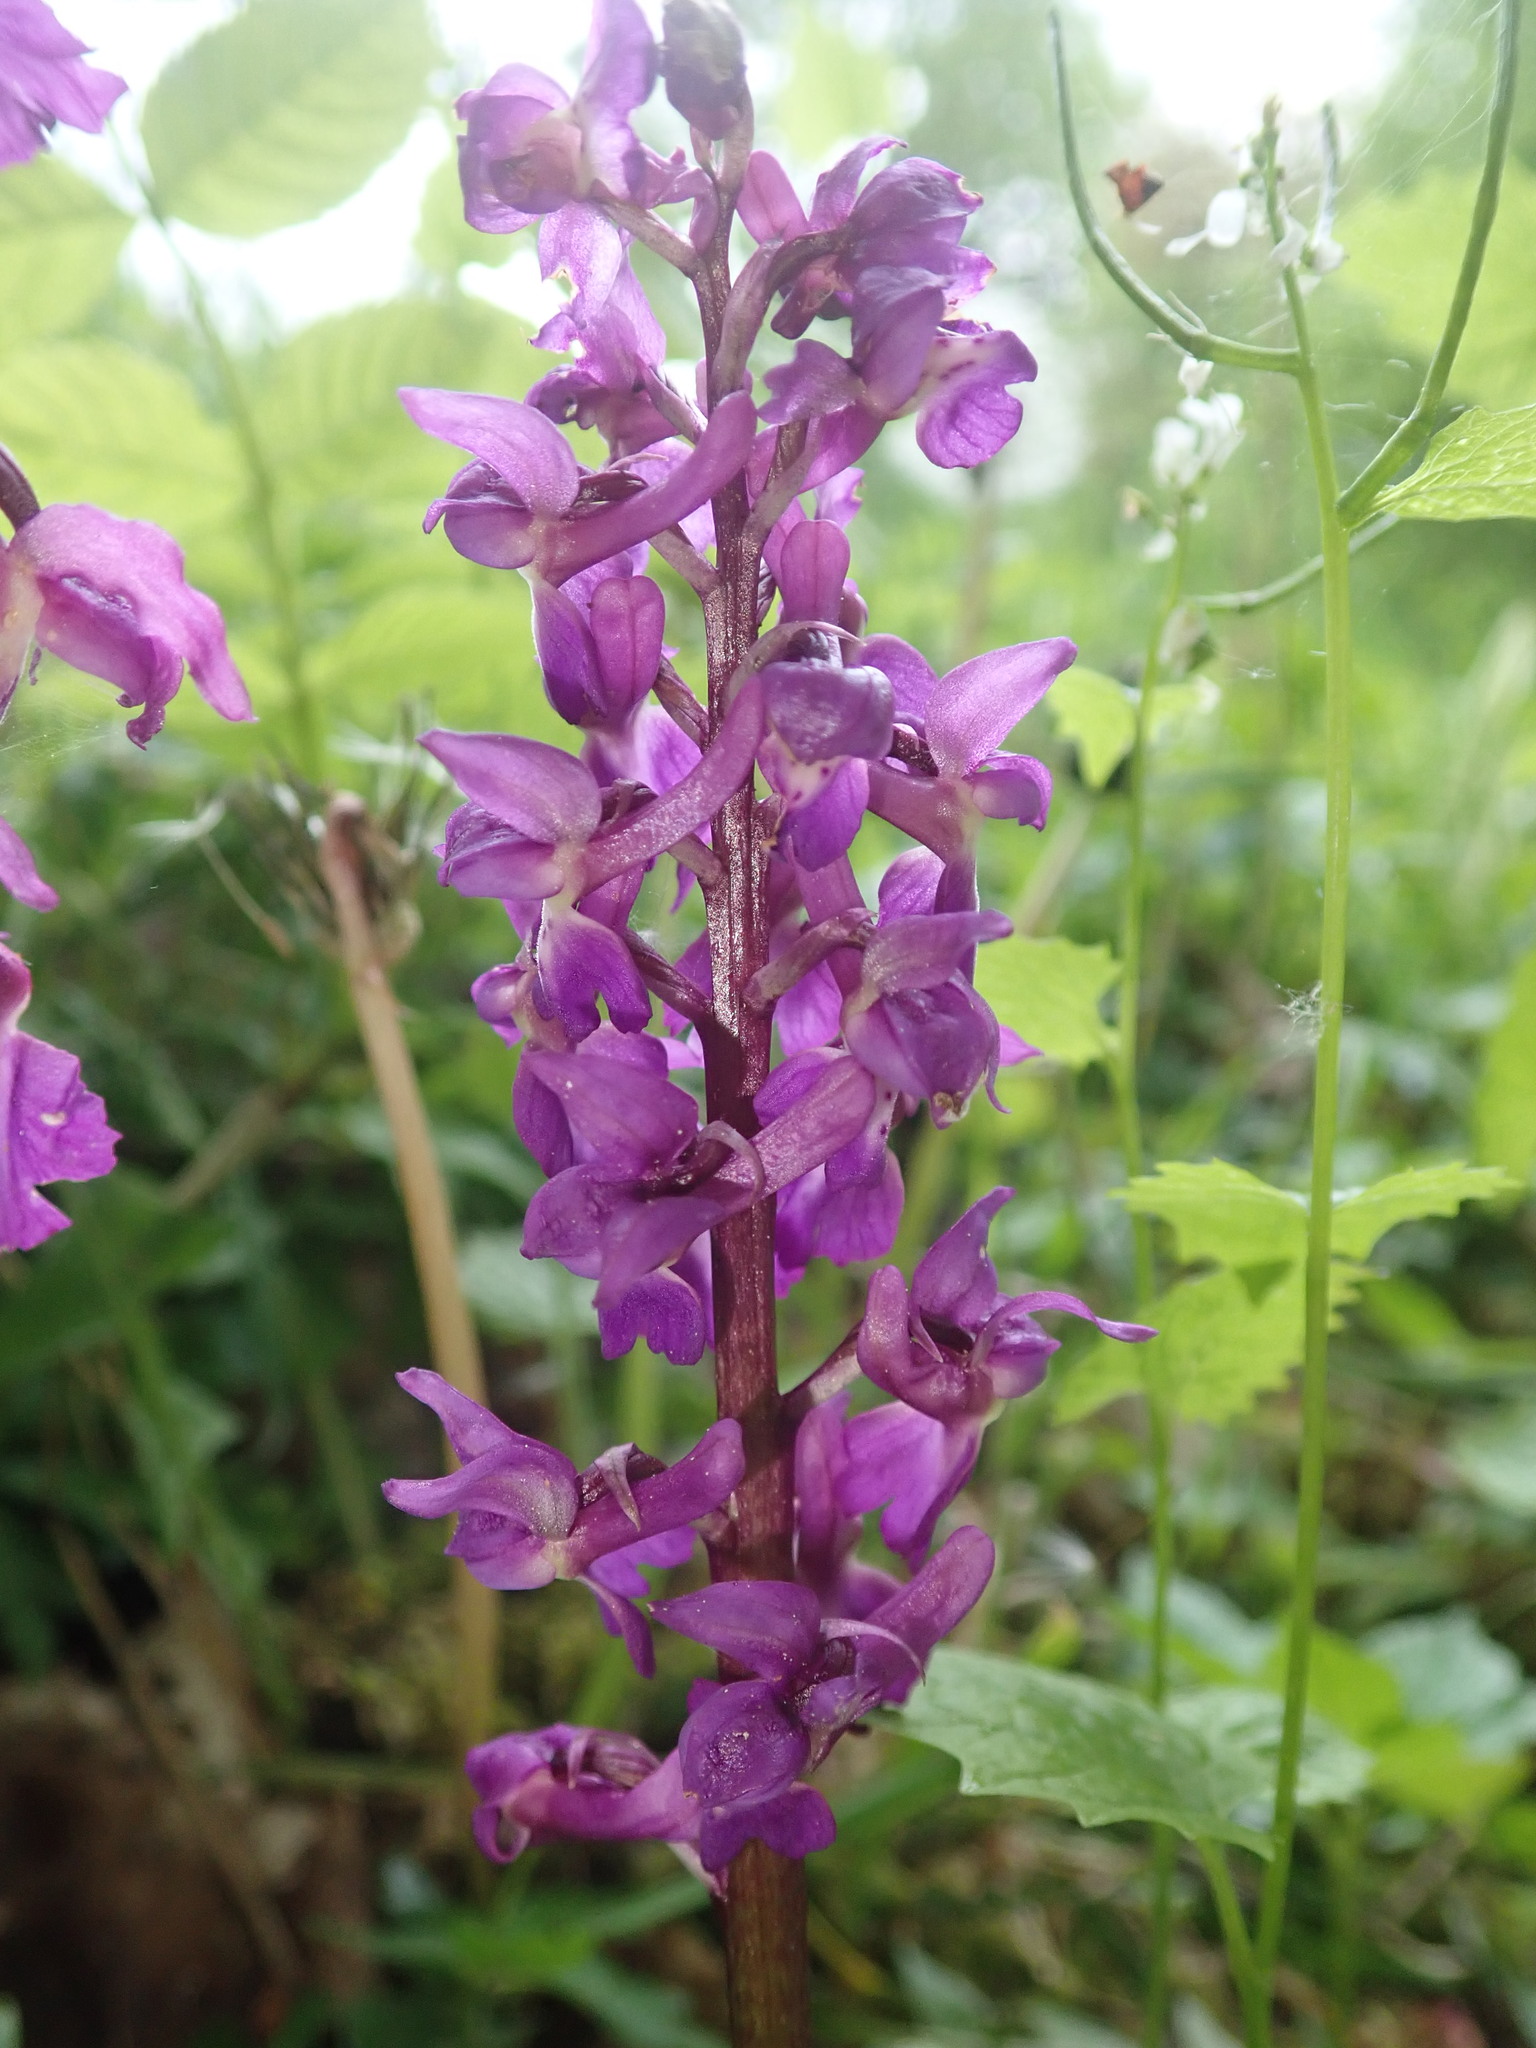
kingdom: Plantae
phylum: Tracheophyta
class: Liliopsida
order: Asparagales
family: Orchidaceae
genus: Orchis
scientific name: Orchis mascula
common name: Early-purple orchid
